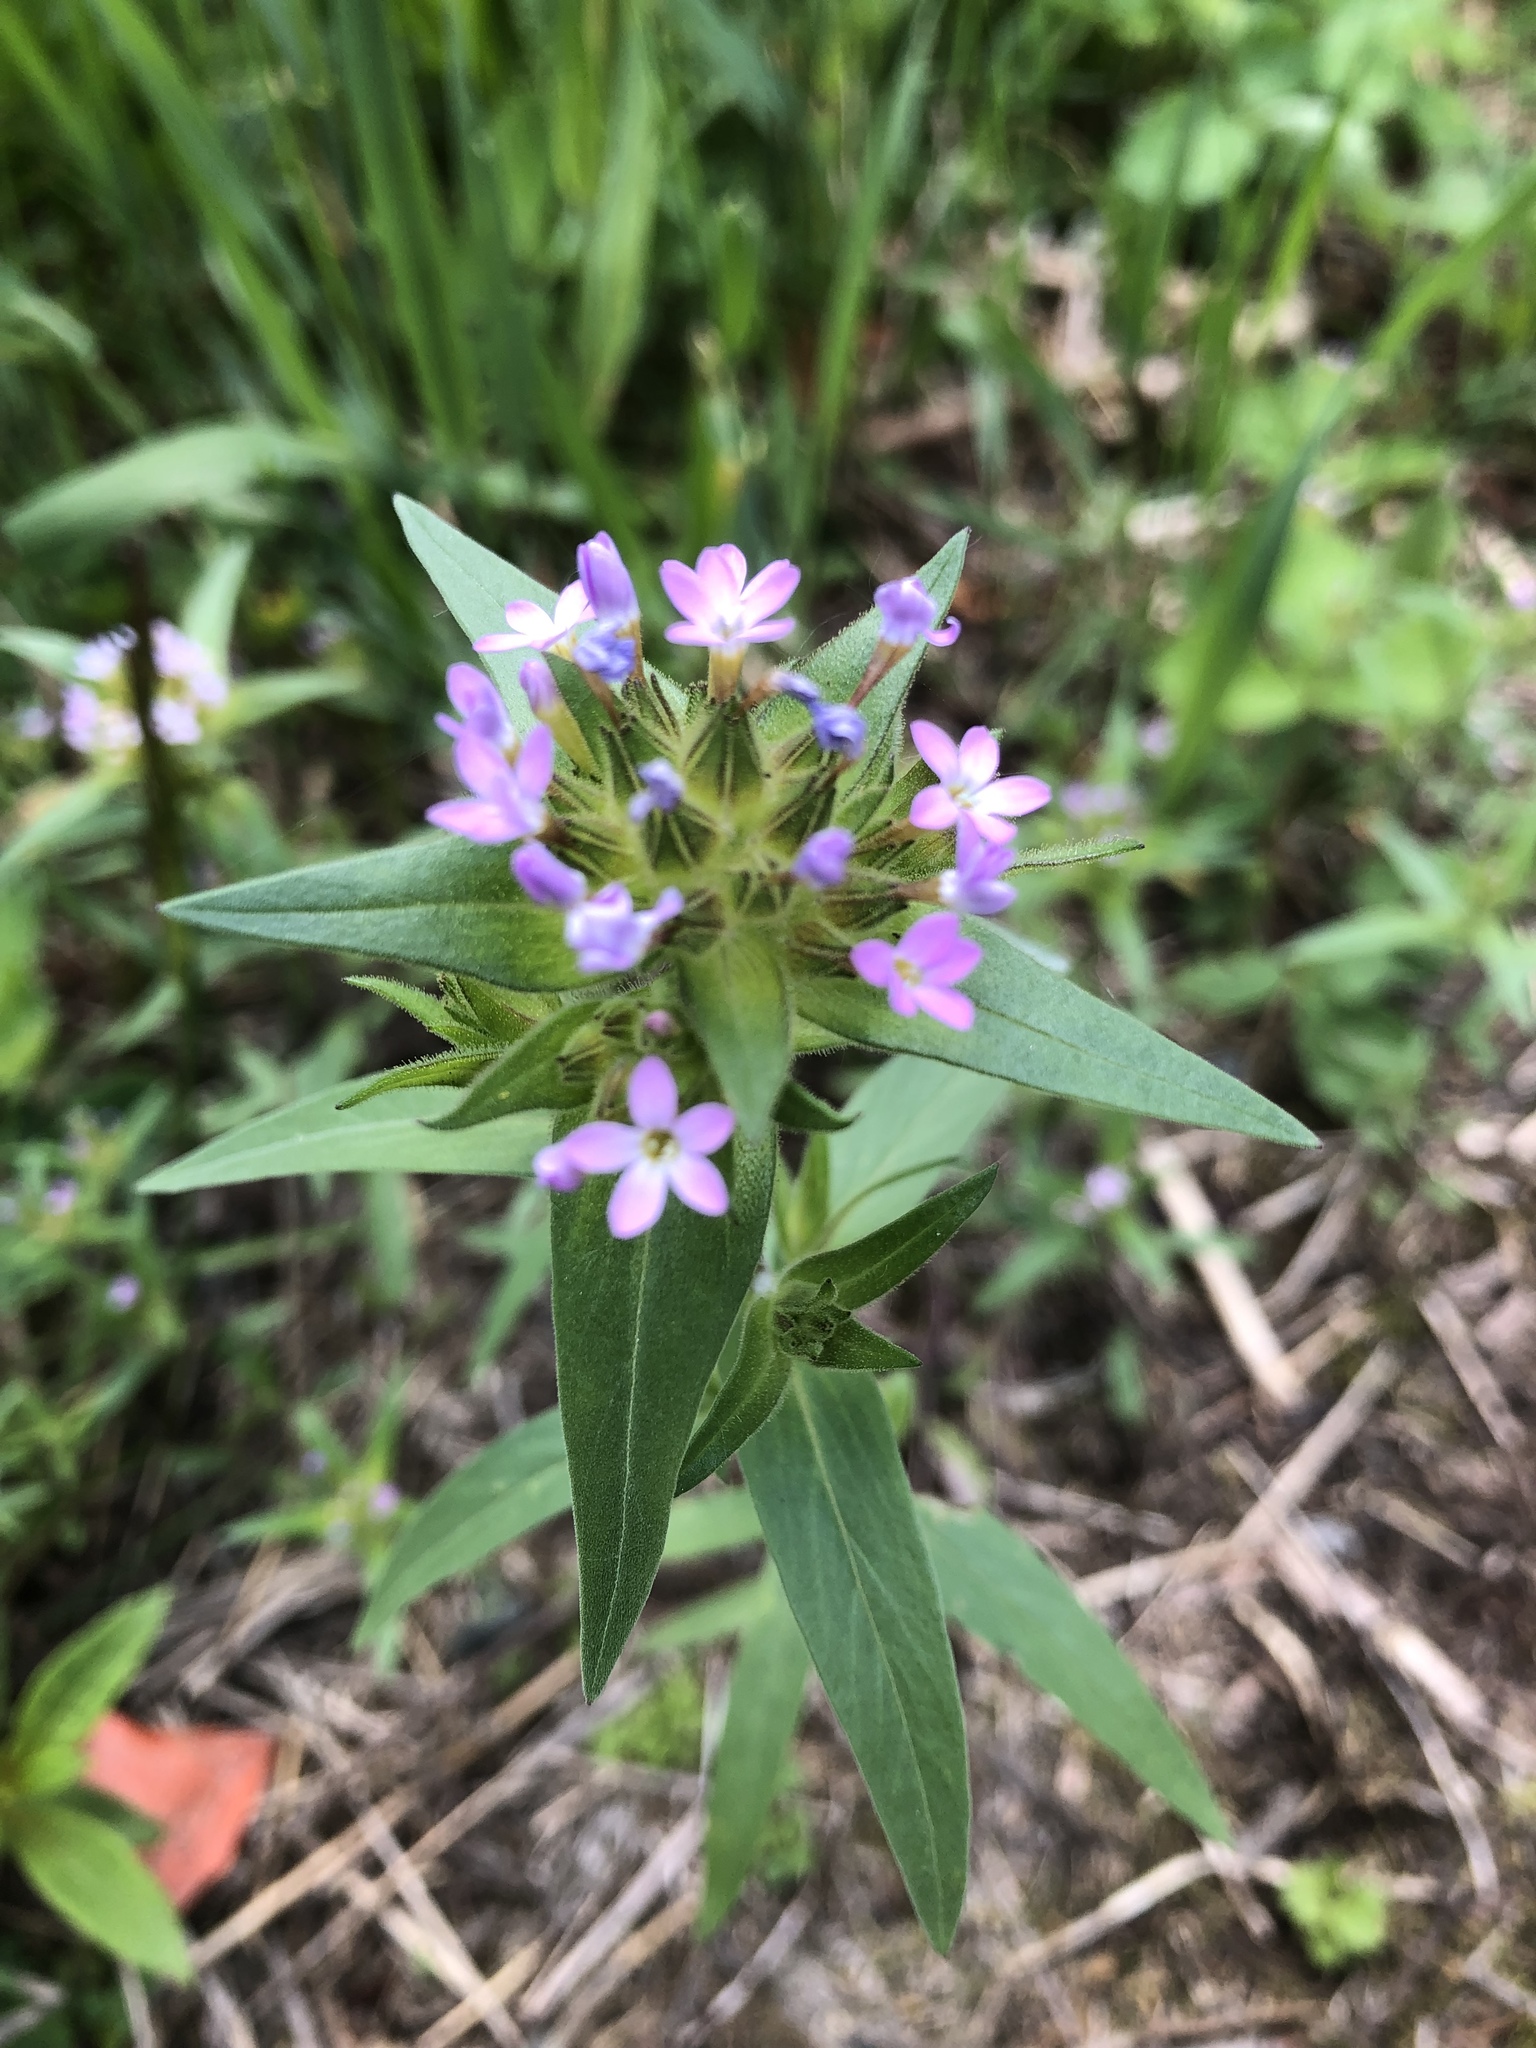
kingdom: Plantae
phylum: Tracheophyta
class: Magnoliopsida
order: Ericales
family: Polemoniaceae
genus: Collomia
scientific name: Collomia linearis
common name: Tiny trumpet
